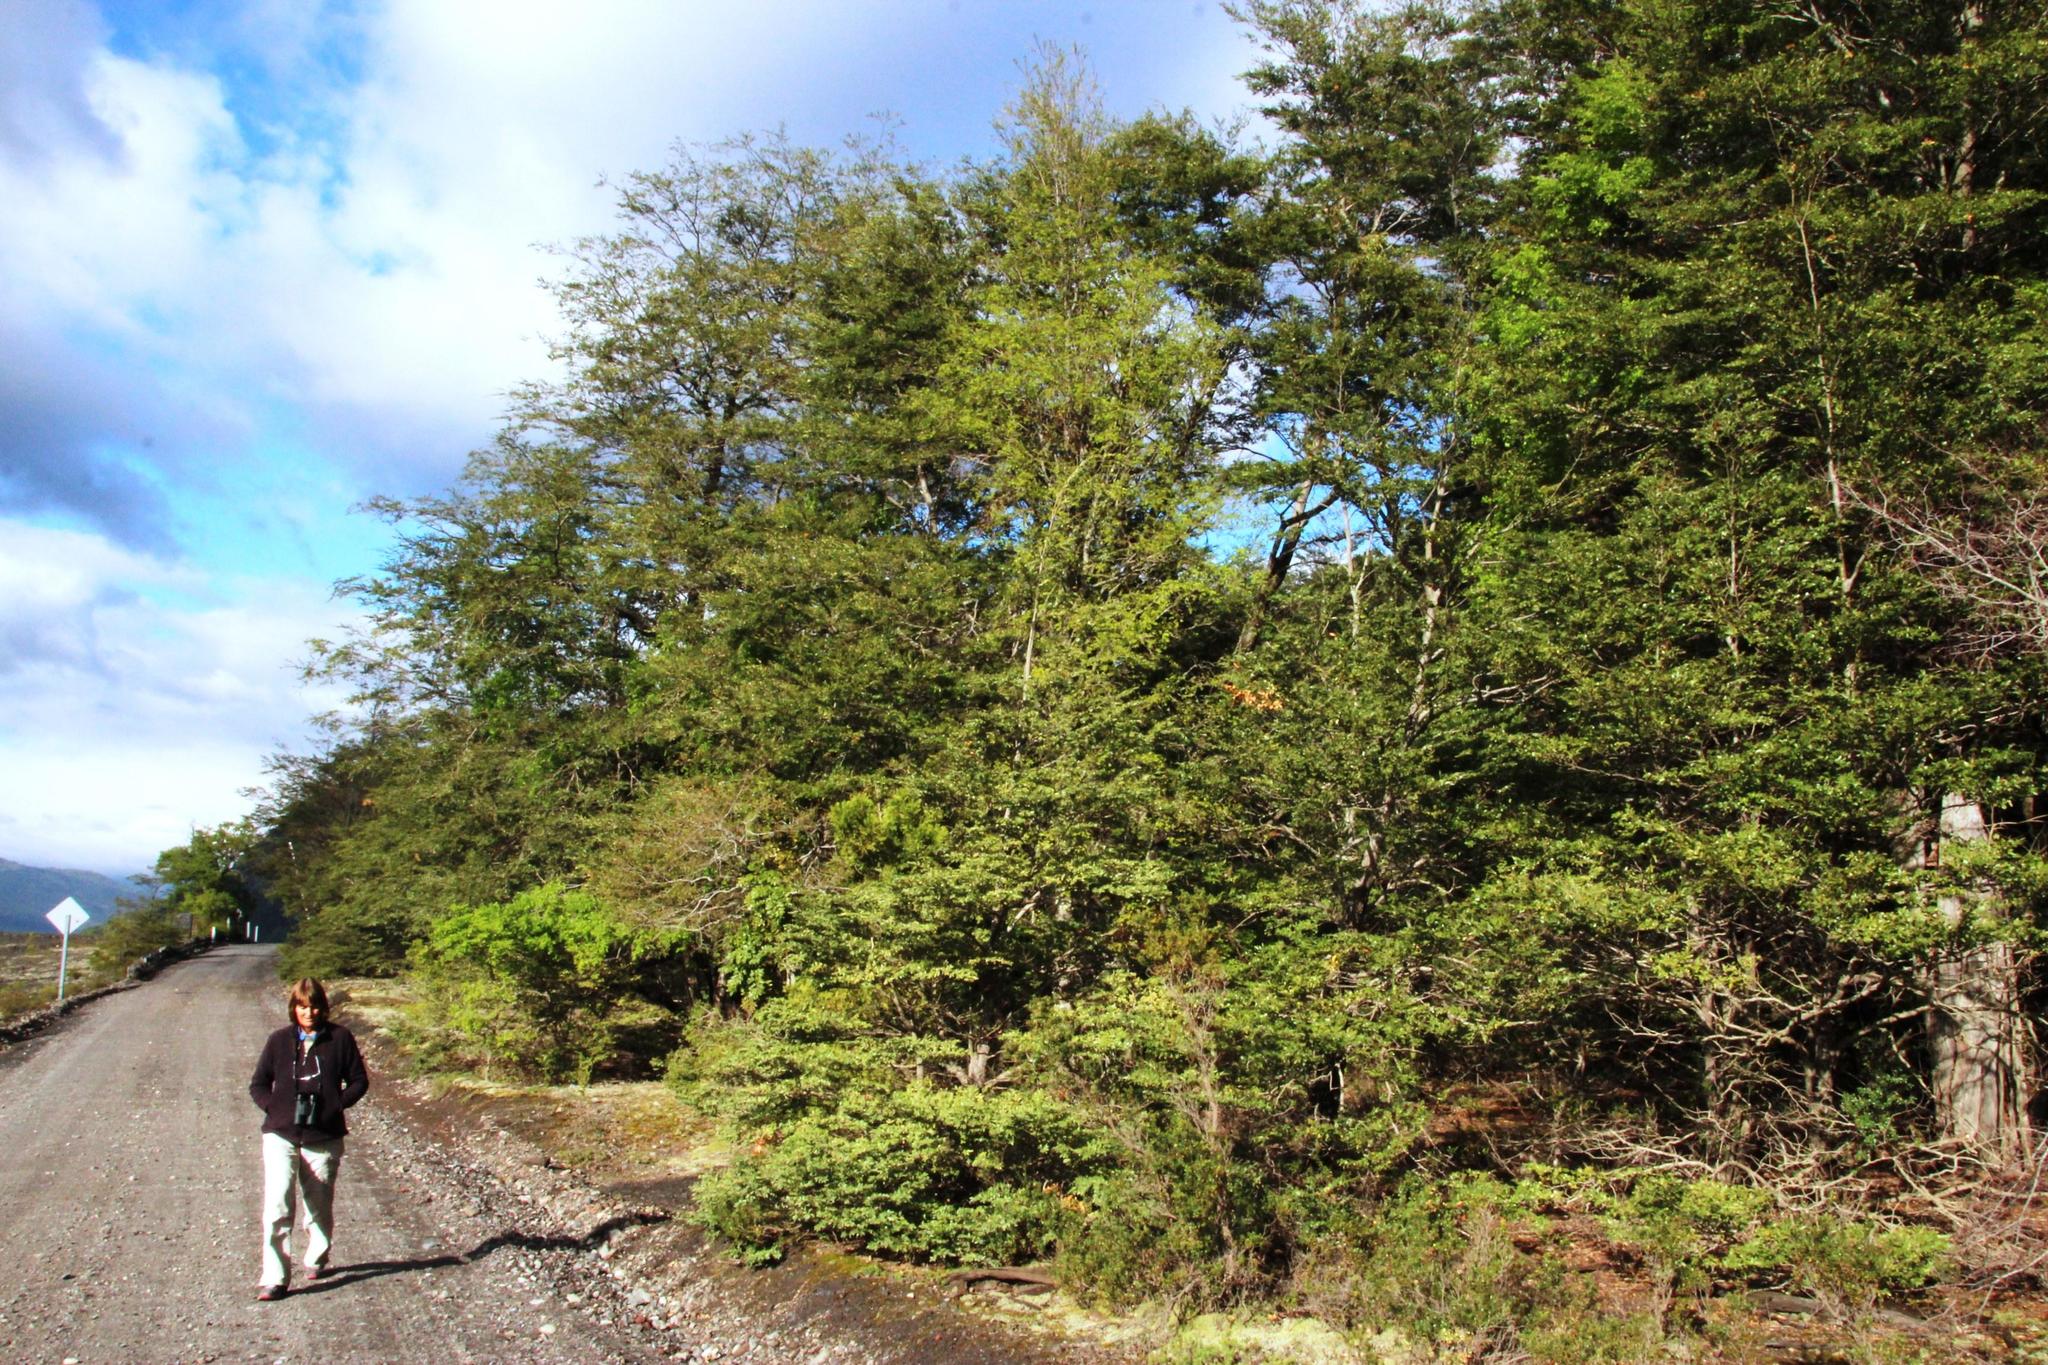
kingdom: Plantae
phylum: Tracheophyta
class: Magnoliopsida
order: Fagales
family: Nothofagaceae
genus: Nothofagus
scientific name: Nothofagus dombeyi
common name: Coigue
